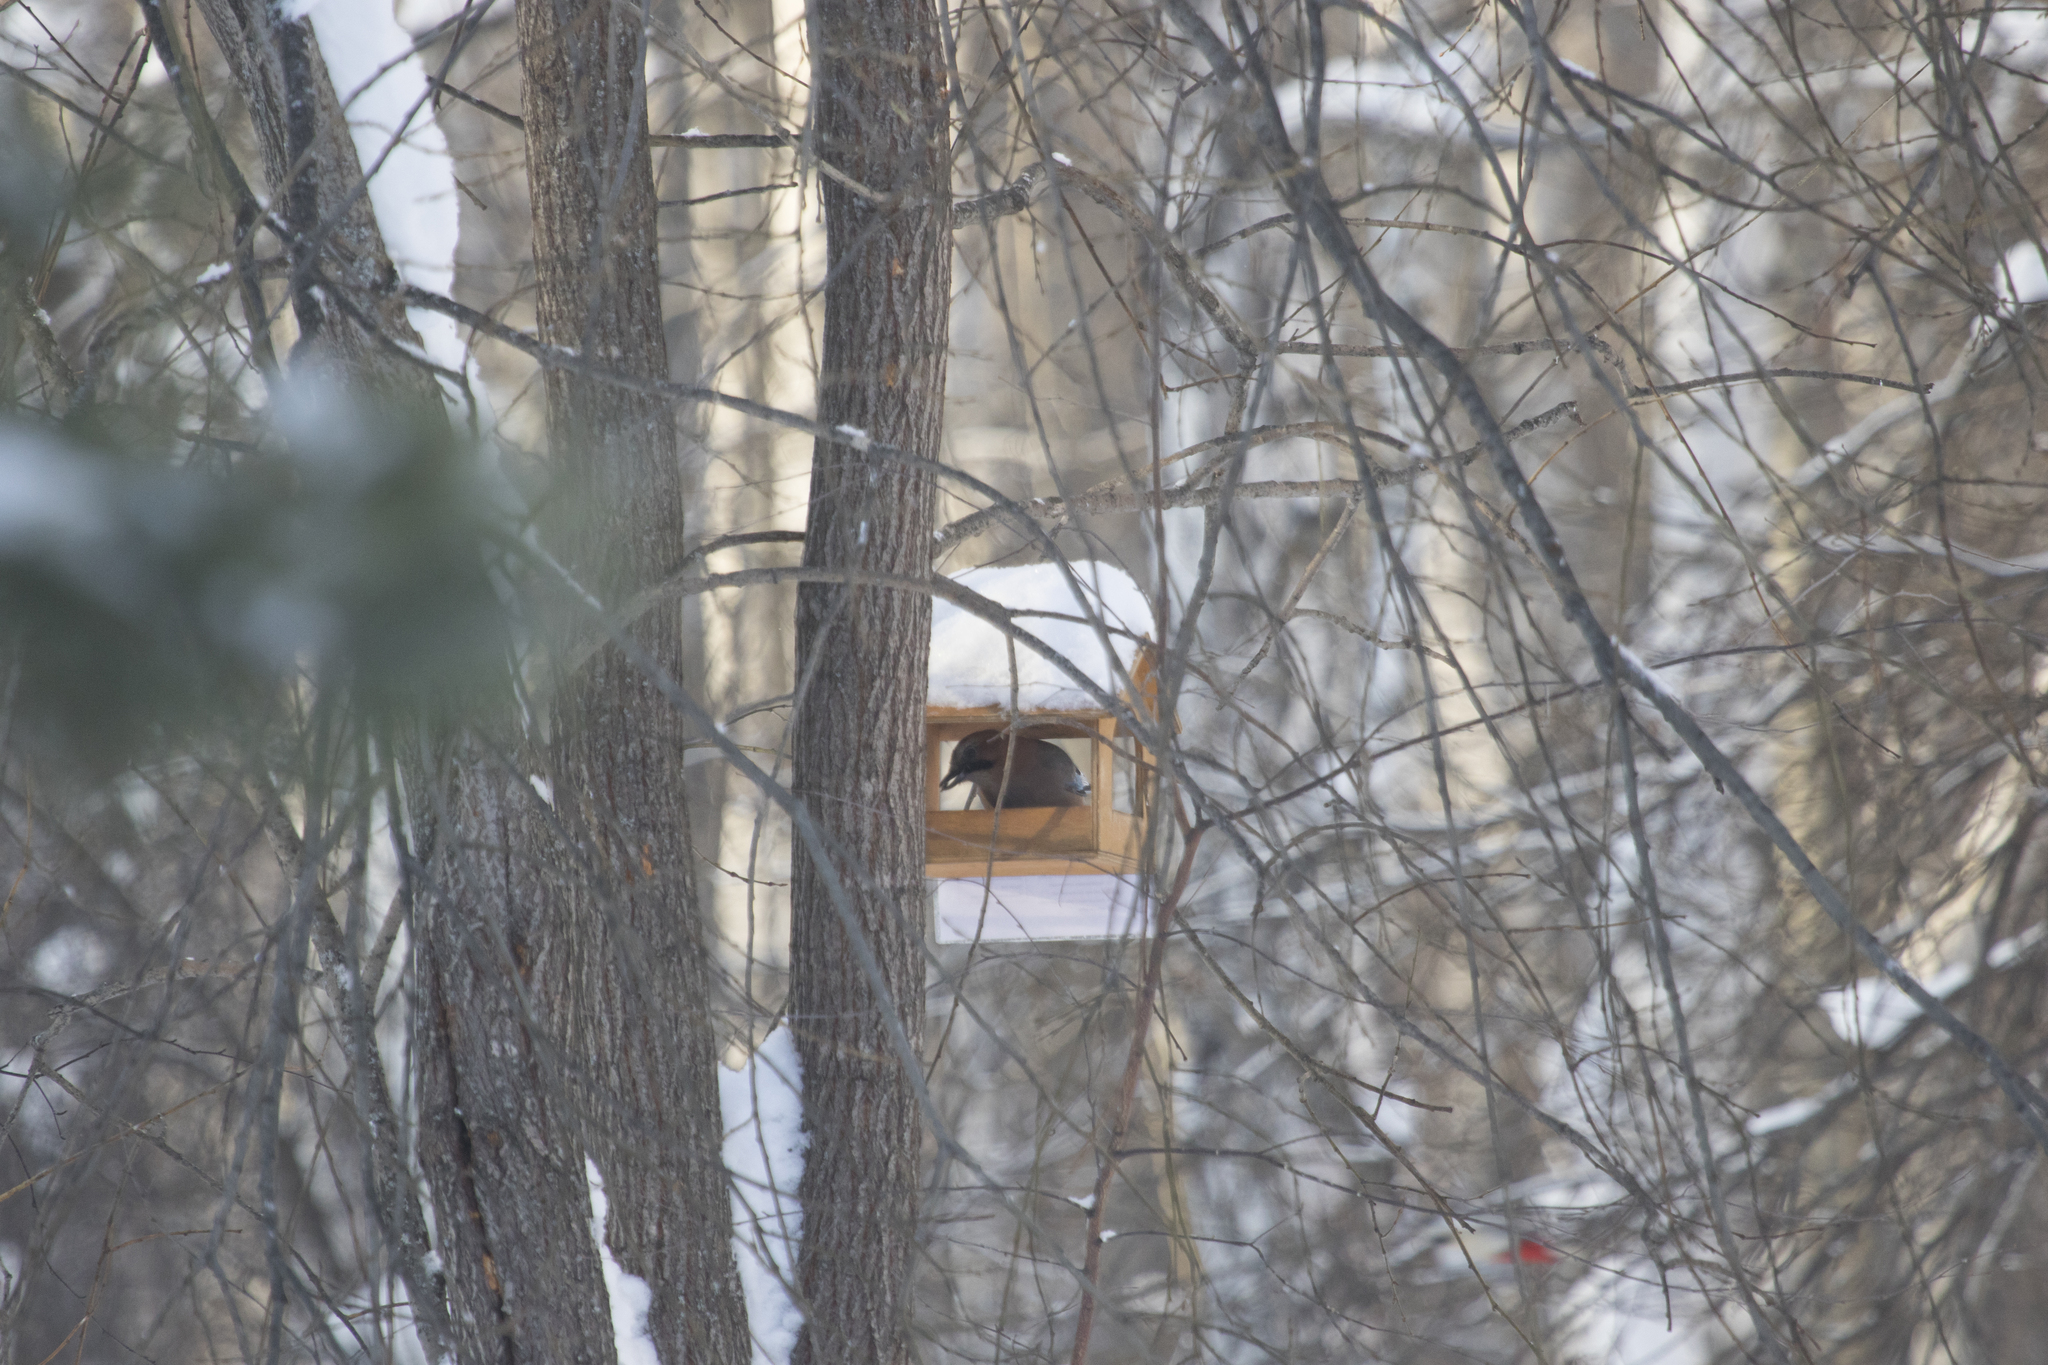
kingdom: Animalia
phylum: Chordata
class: Aves
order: Passeriformes
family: Corvidae
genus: Garrulus
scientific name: Garrulus glandarius
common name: Eurasian jay
